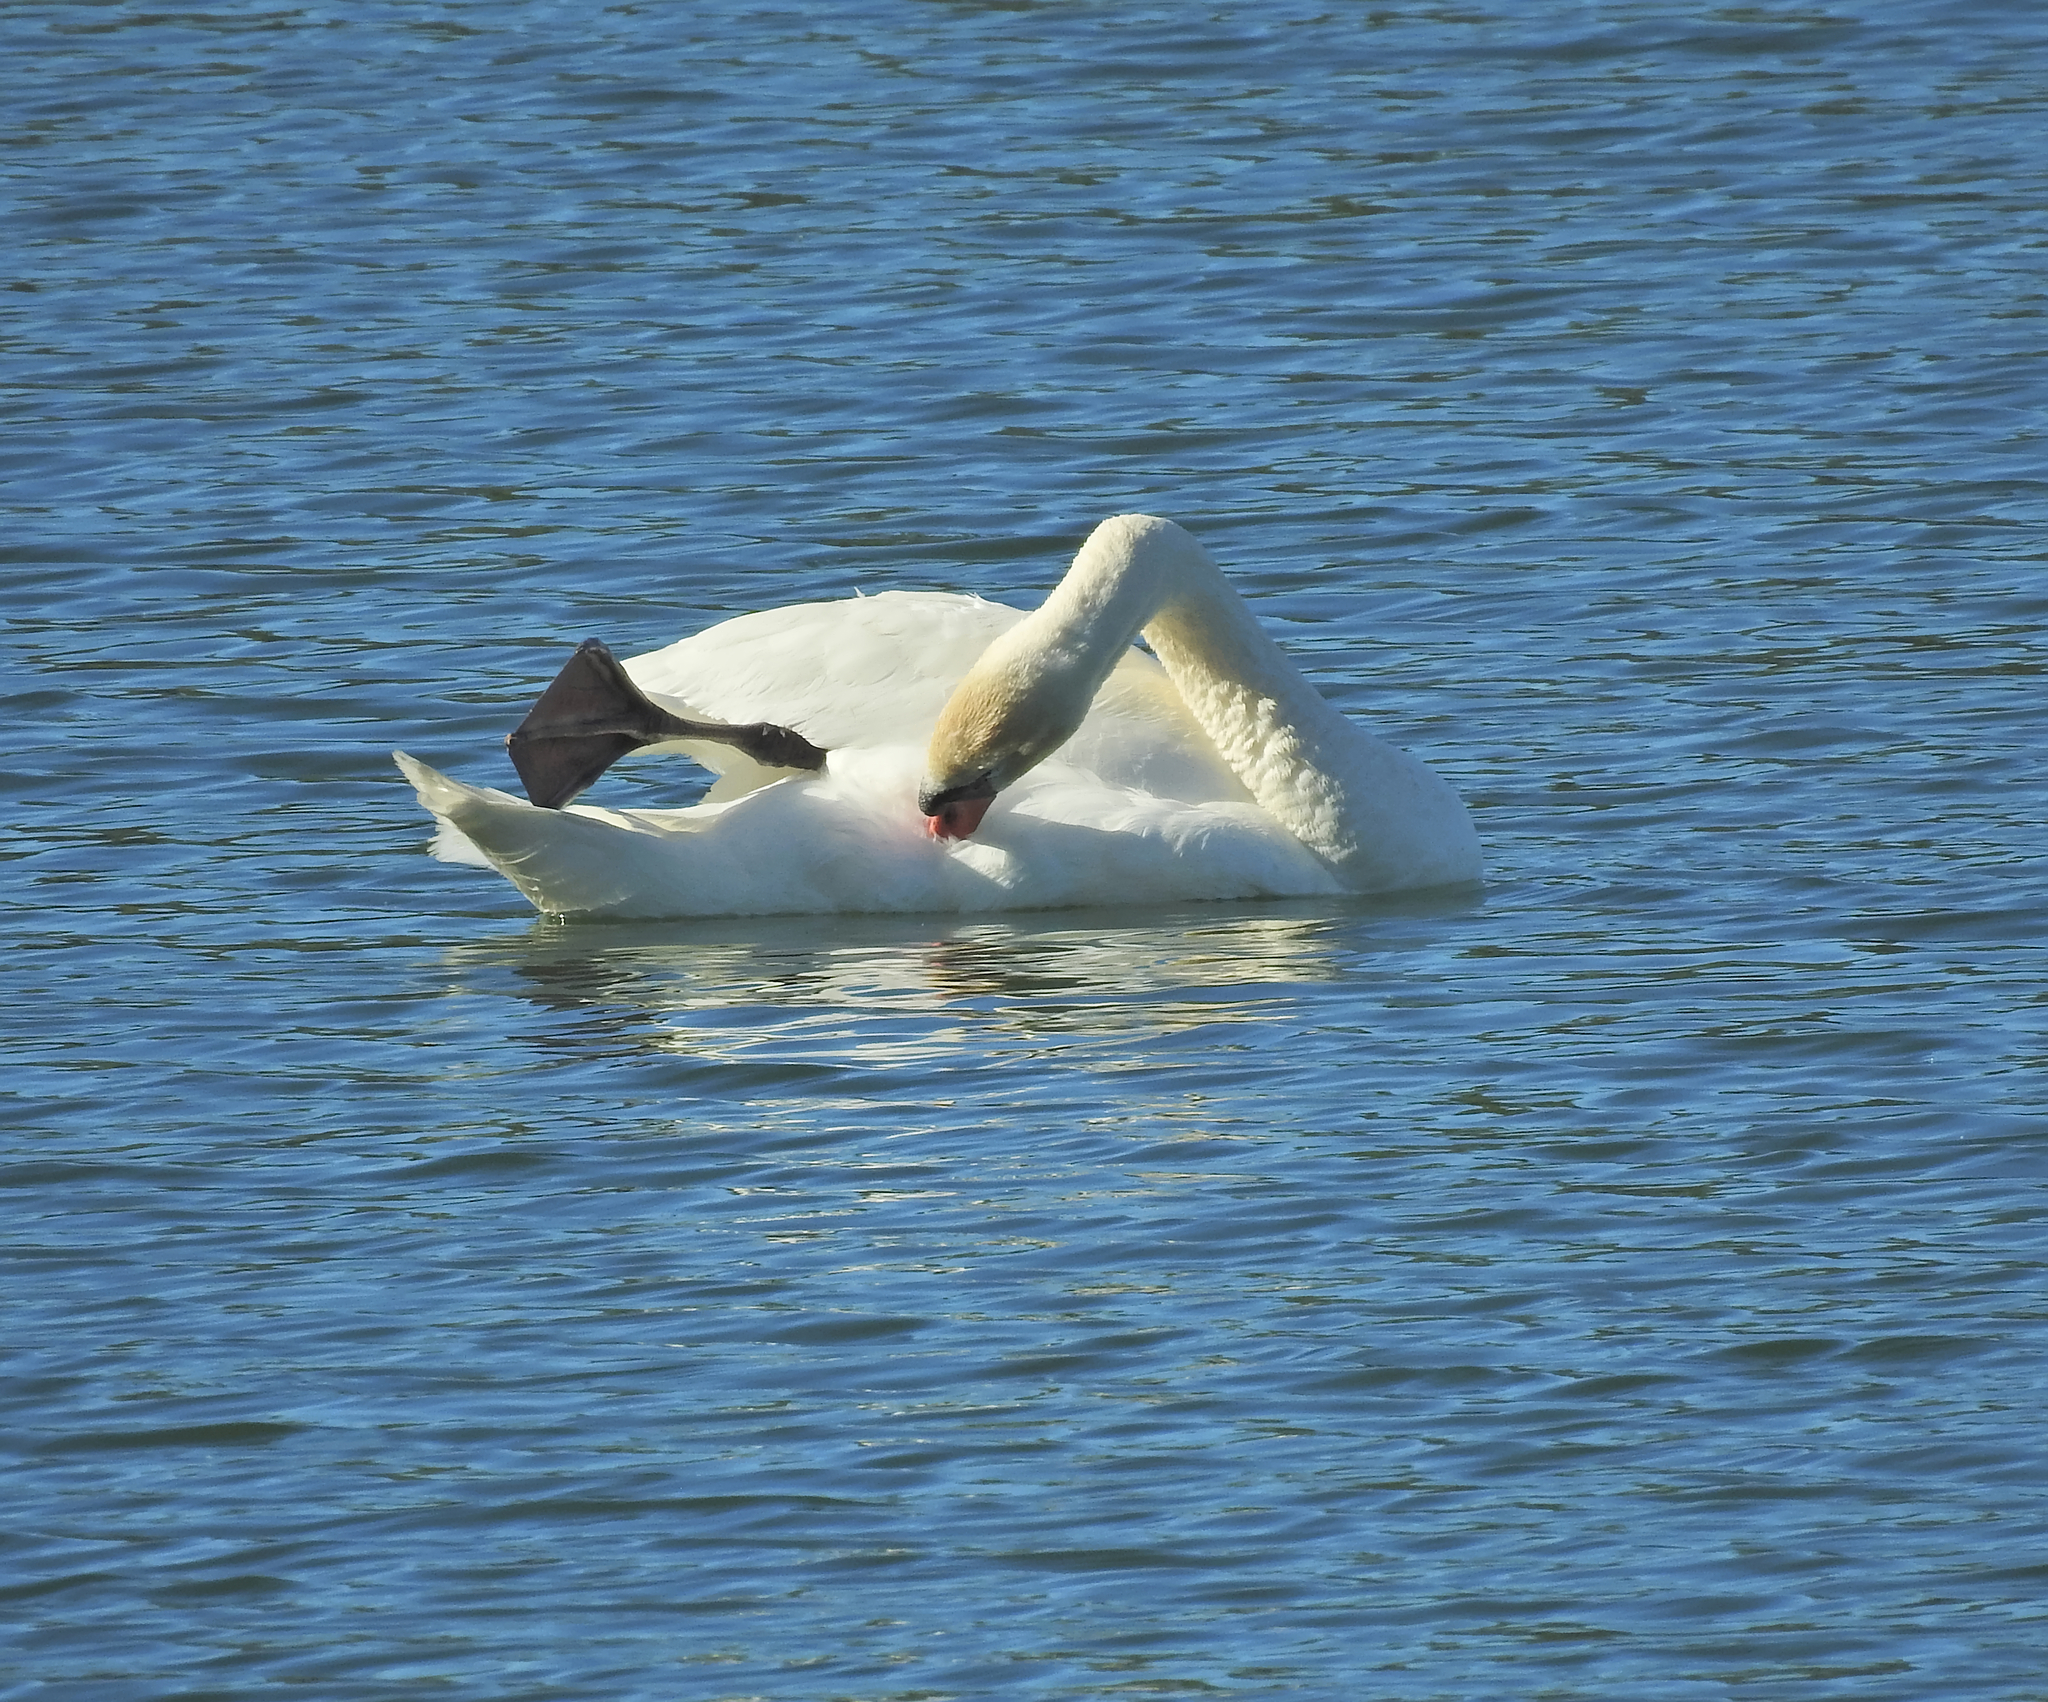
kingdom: Animalia
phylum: Chordata
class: Aves
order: Anseriformes
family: Anatidae
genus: Cygnus
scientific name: Cygnus olor
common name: Mute swan
